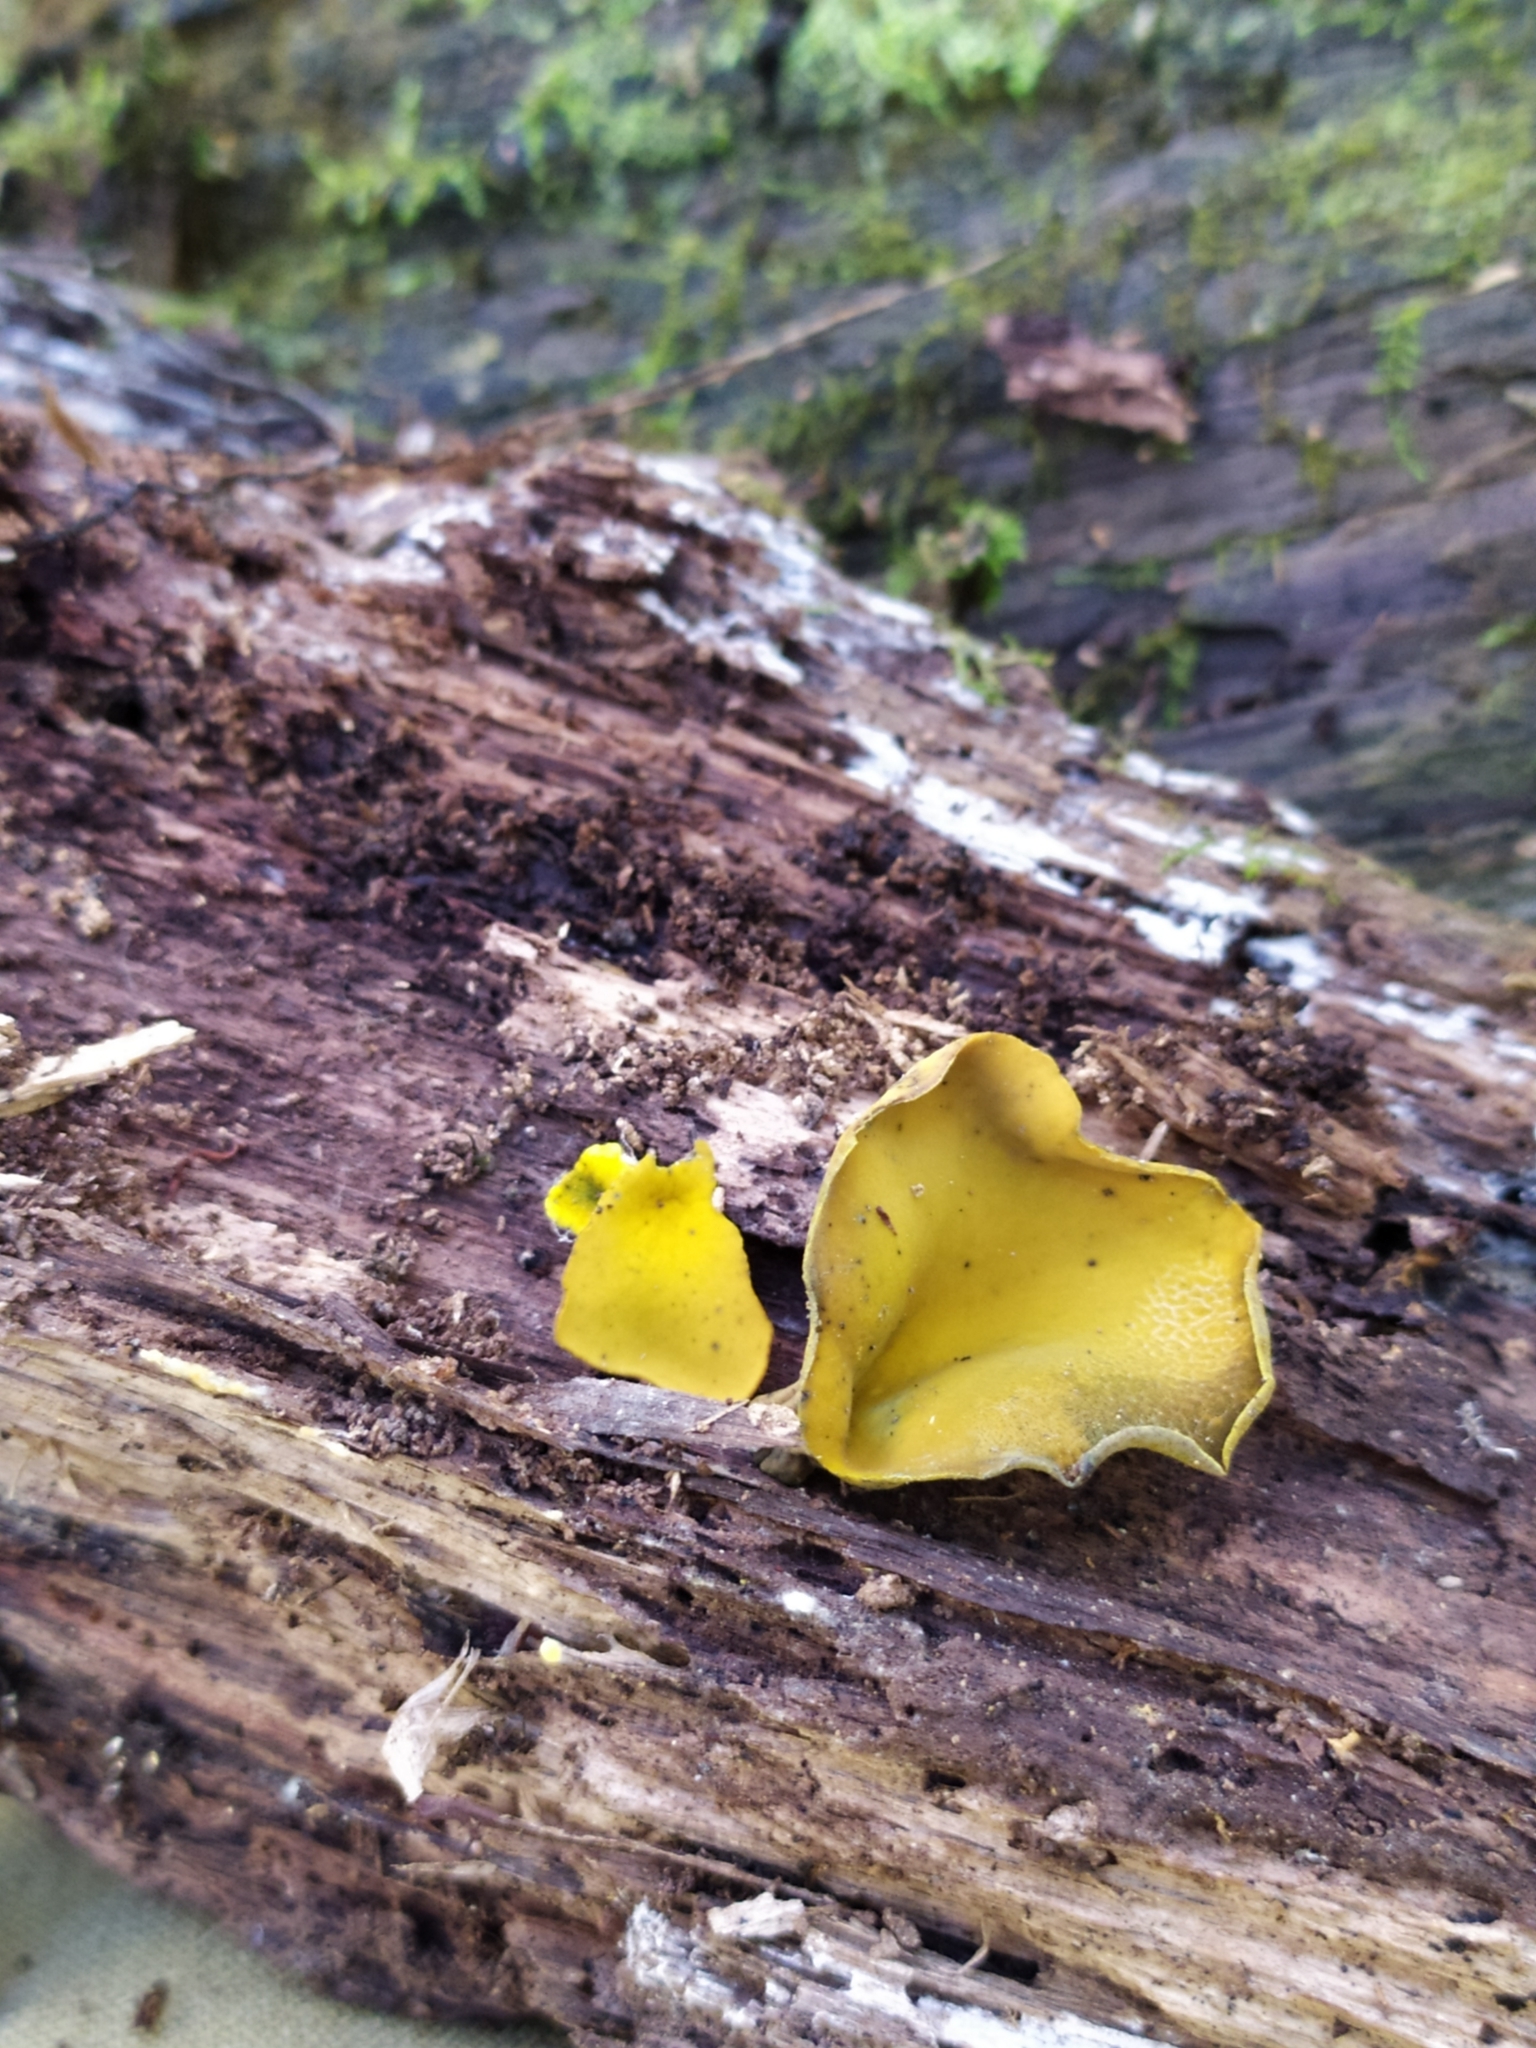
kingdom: Fungi
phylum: Ascomycota
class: Leotiomycetes
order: Helotiales
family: Cenangiaceae
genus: Chlorencoelia
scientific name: Chlorencoelia versiformis
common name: Flea's ear
